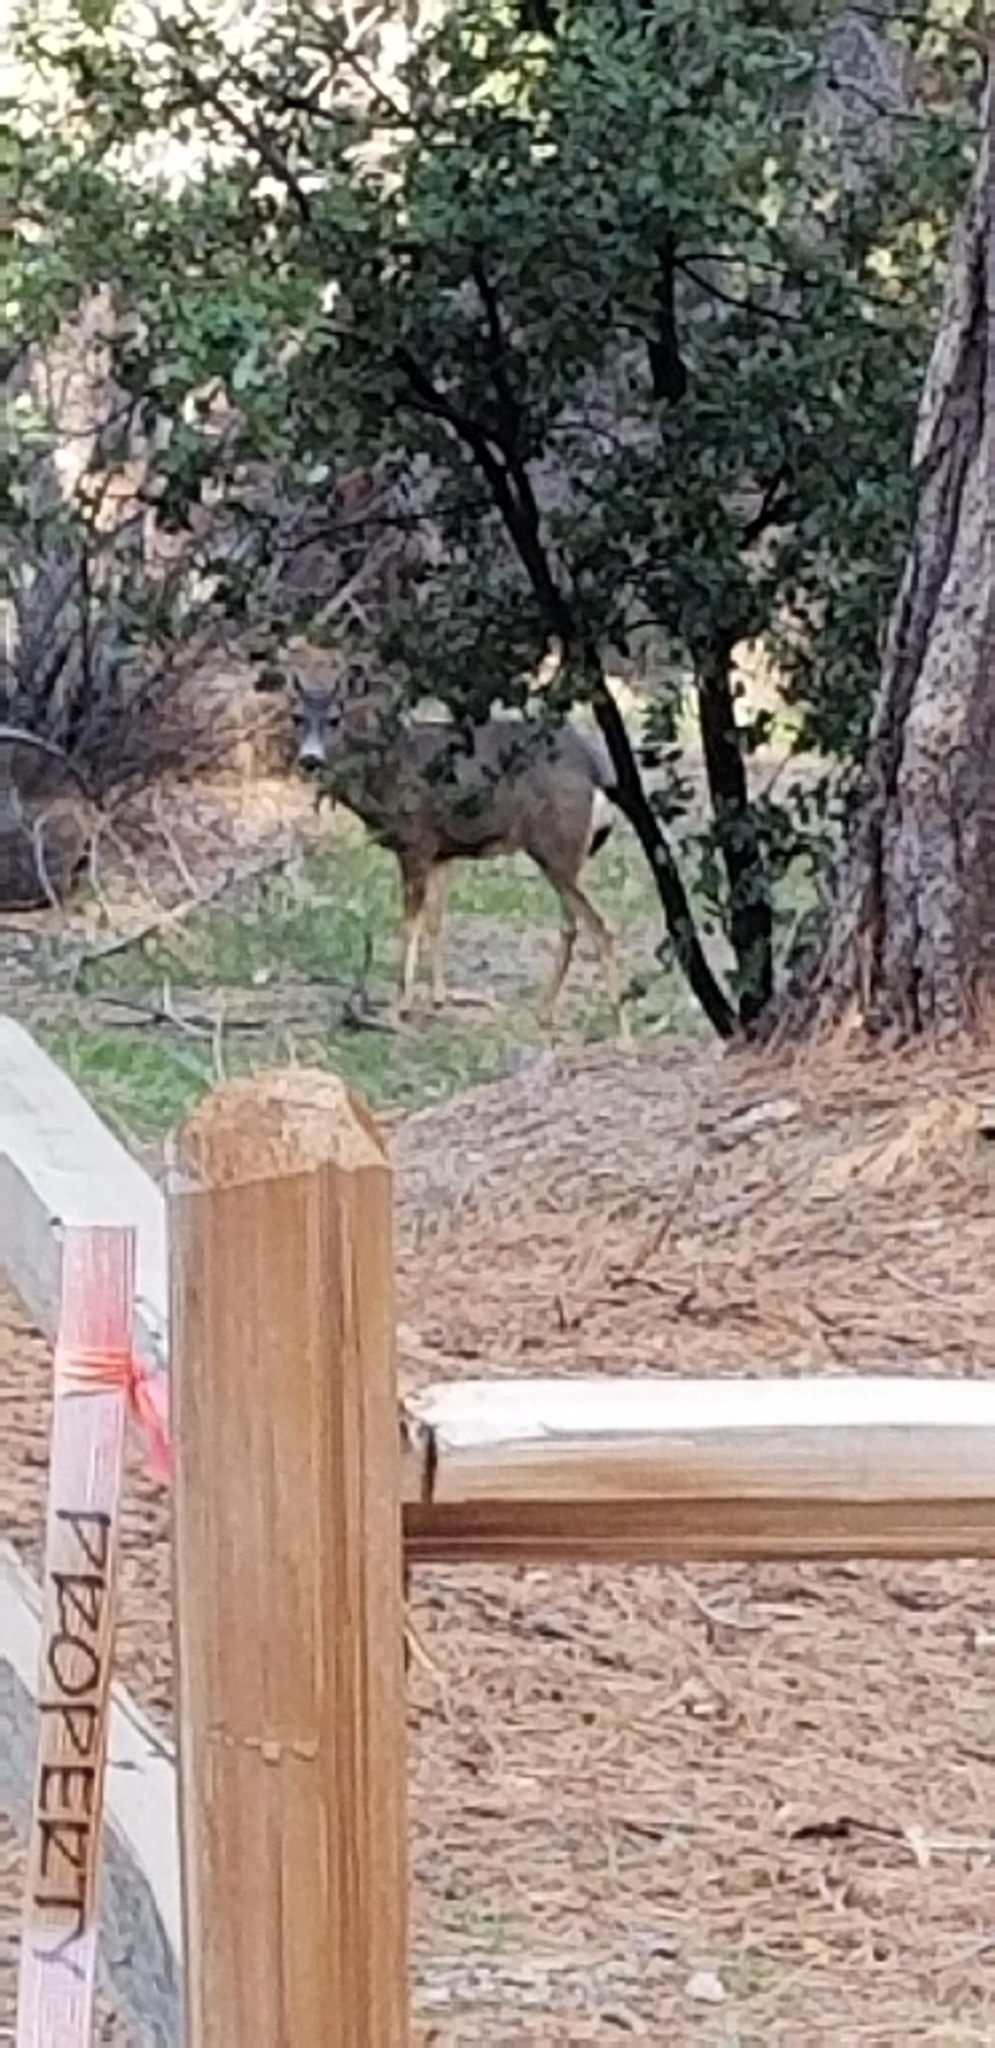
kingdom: Animalia
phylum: Chordata
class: Mammalia
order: Artiodactyla
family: Cervidae
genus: Odocoileus
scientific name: Odocoileus hemionus
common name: Mule deer
